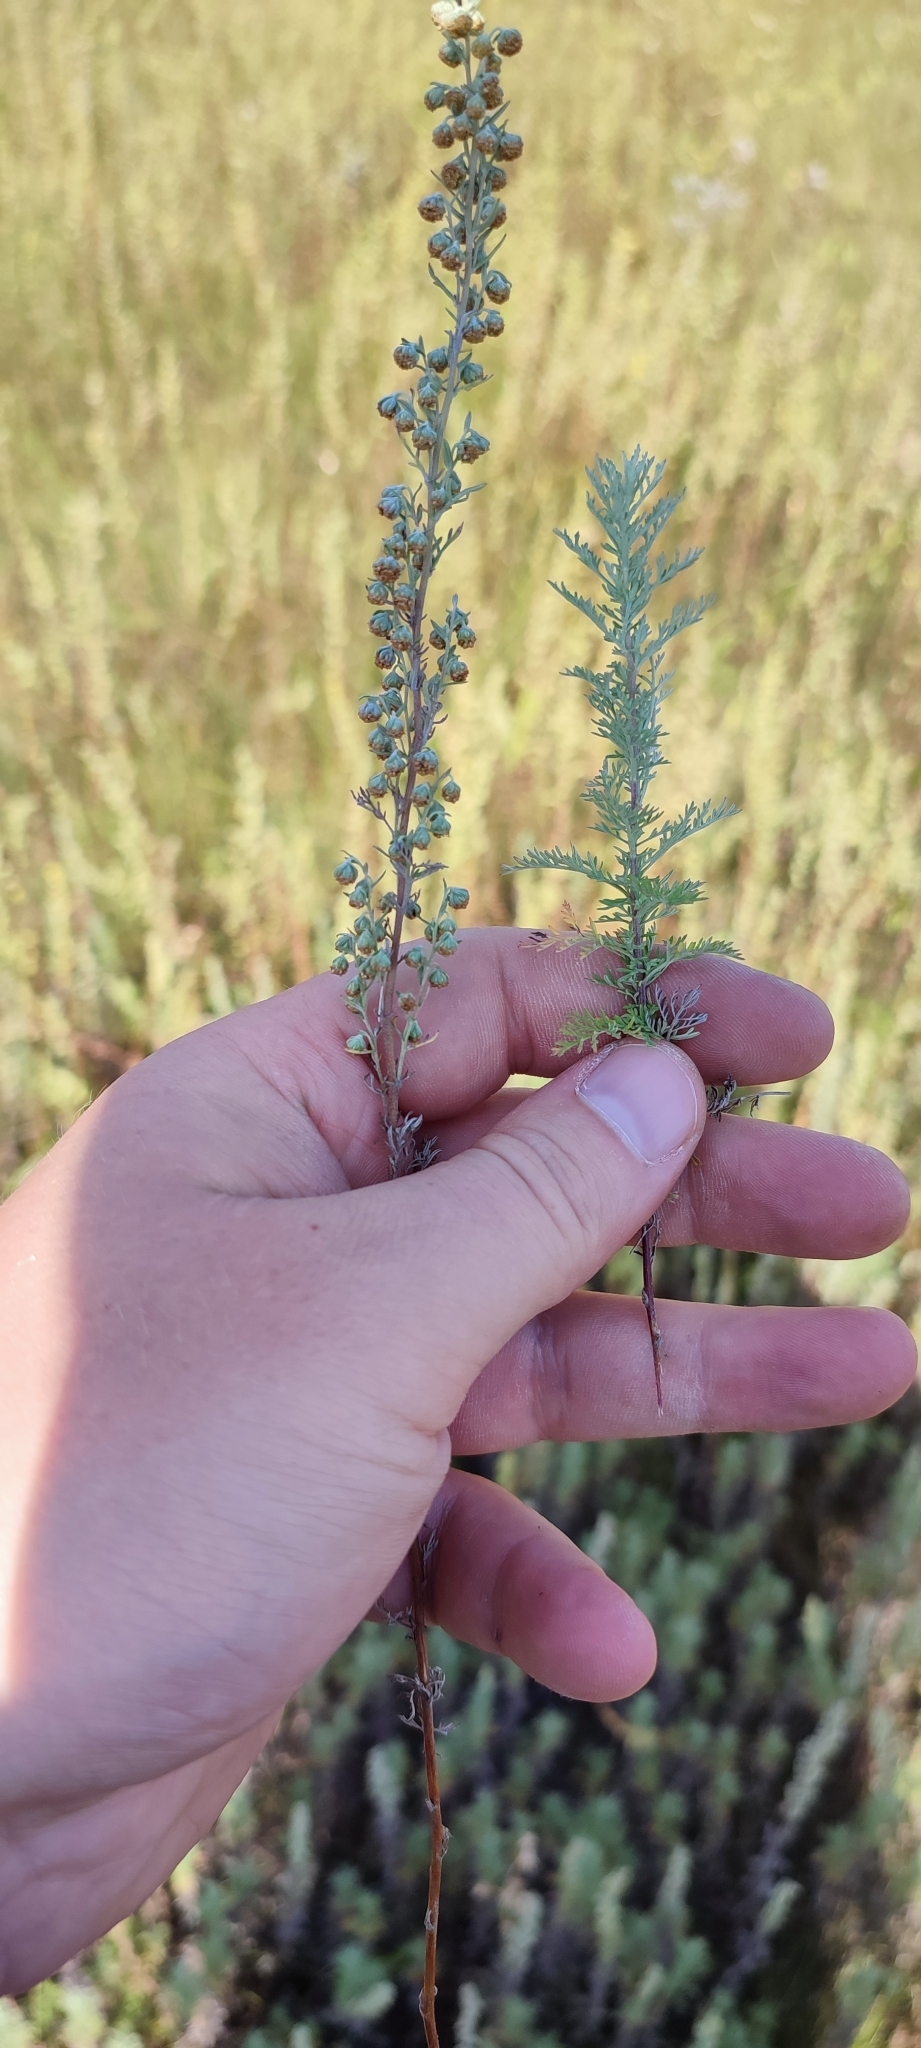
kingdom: Plantae
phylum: Tracheophyta
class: Magnoliopsida
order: Asterales
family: Asteraceae
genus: Artemisia
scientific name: Artemisia pontica
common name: Roman wormwood
